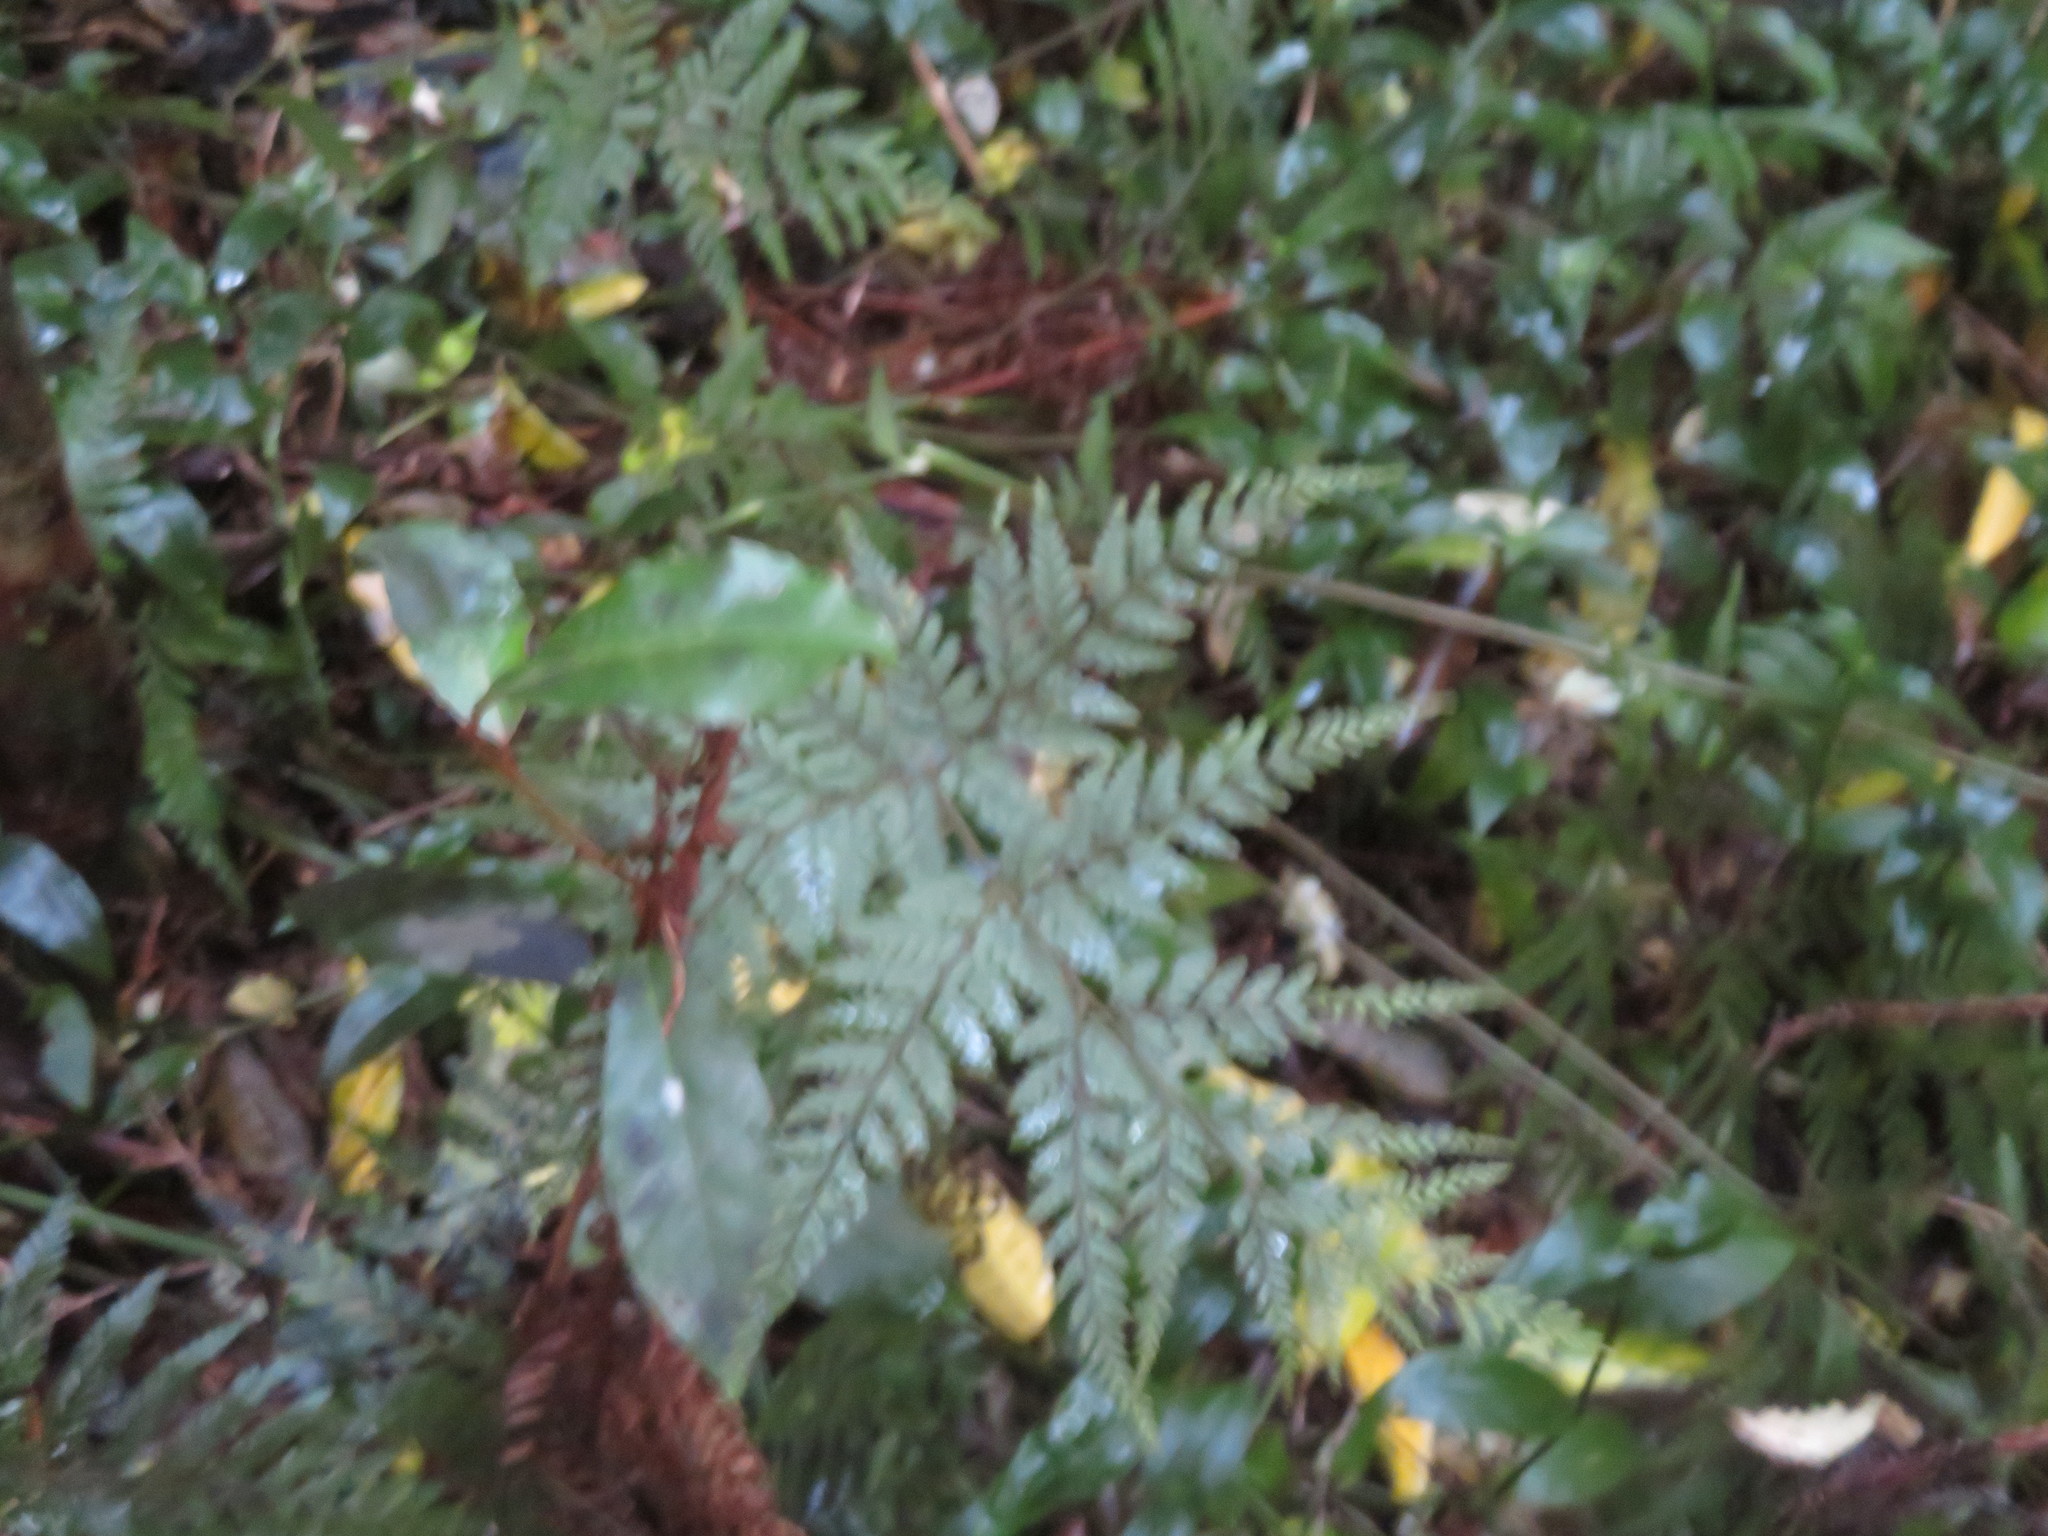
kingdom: Plantae
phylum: Tracheophyta
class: Magnoliopsida
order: Rosales
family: Elaeagnaceae
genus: Elaeagnus
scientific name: Elaeagnus reflexa
